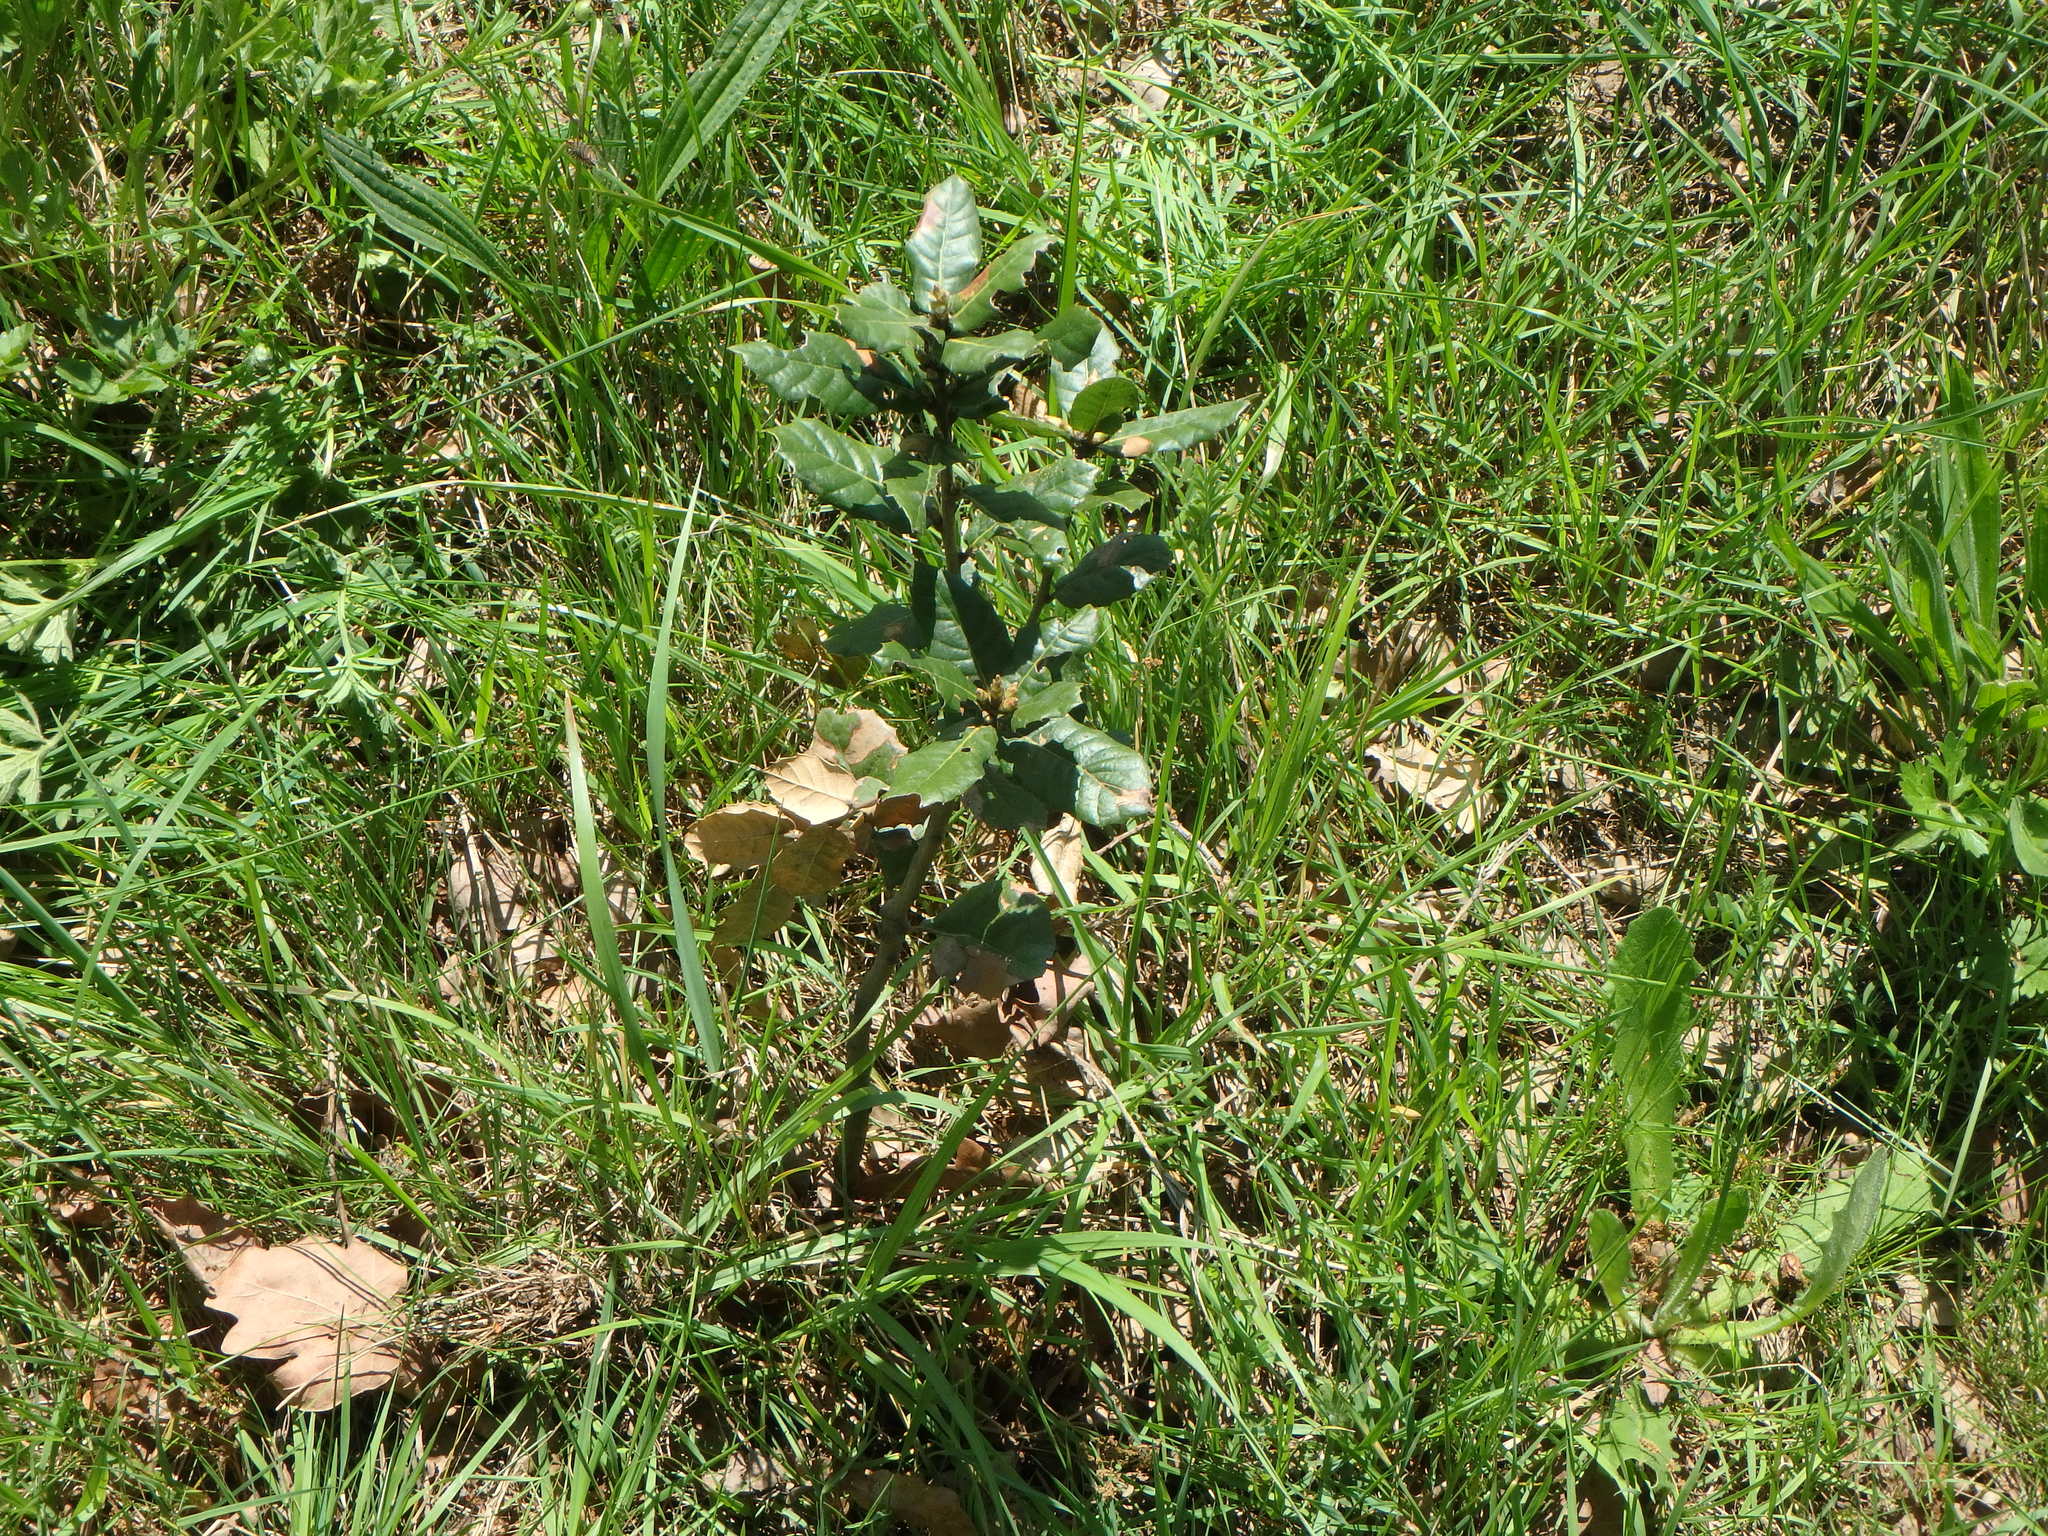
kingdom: Plantae
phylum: Tracheophyta
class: Magnoliopsida
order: Fagales
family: Fagaceae
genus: Quercus
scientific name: Quercus ilex
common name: Evergreen oak
